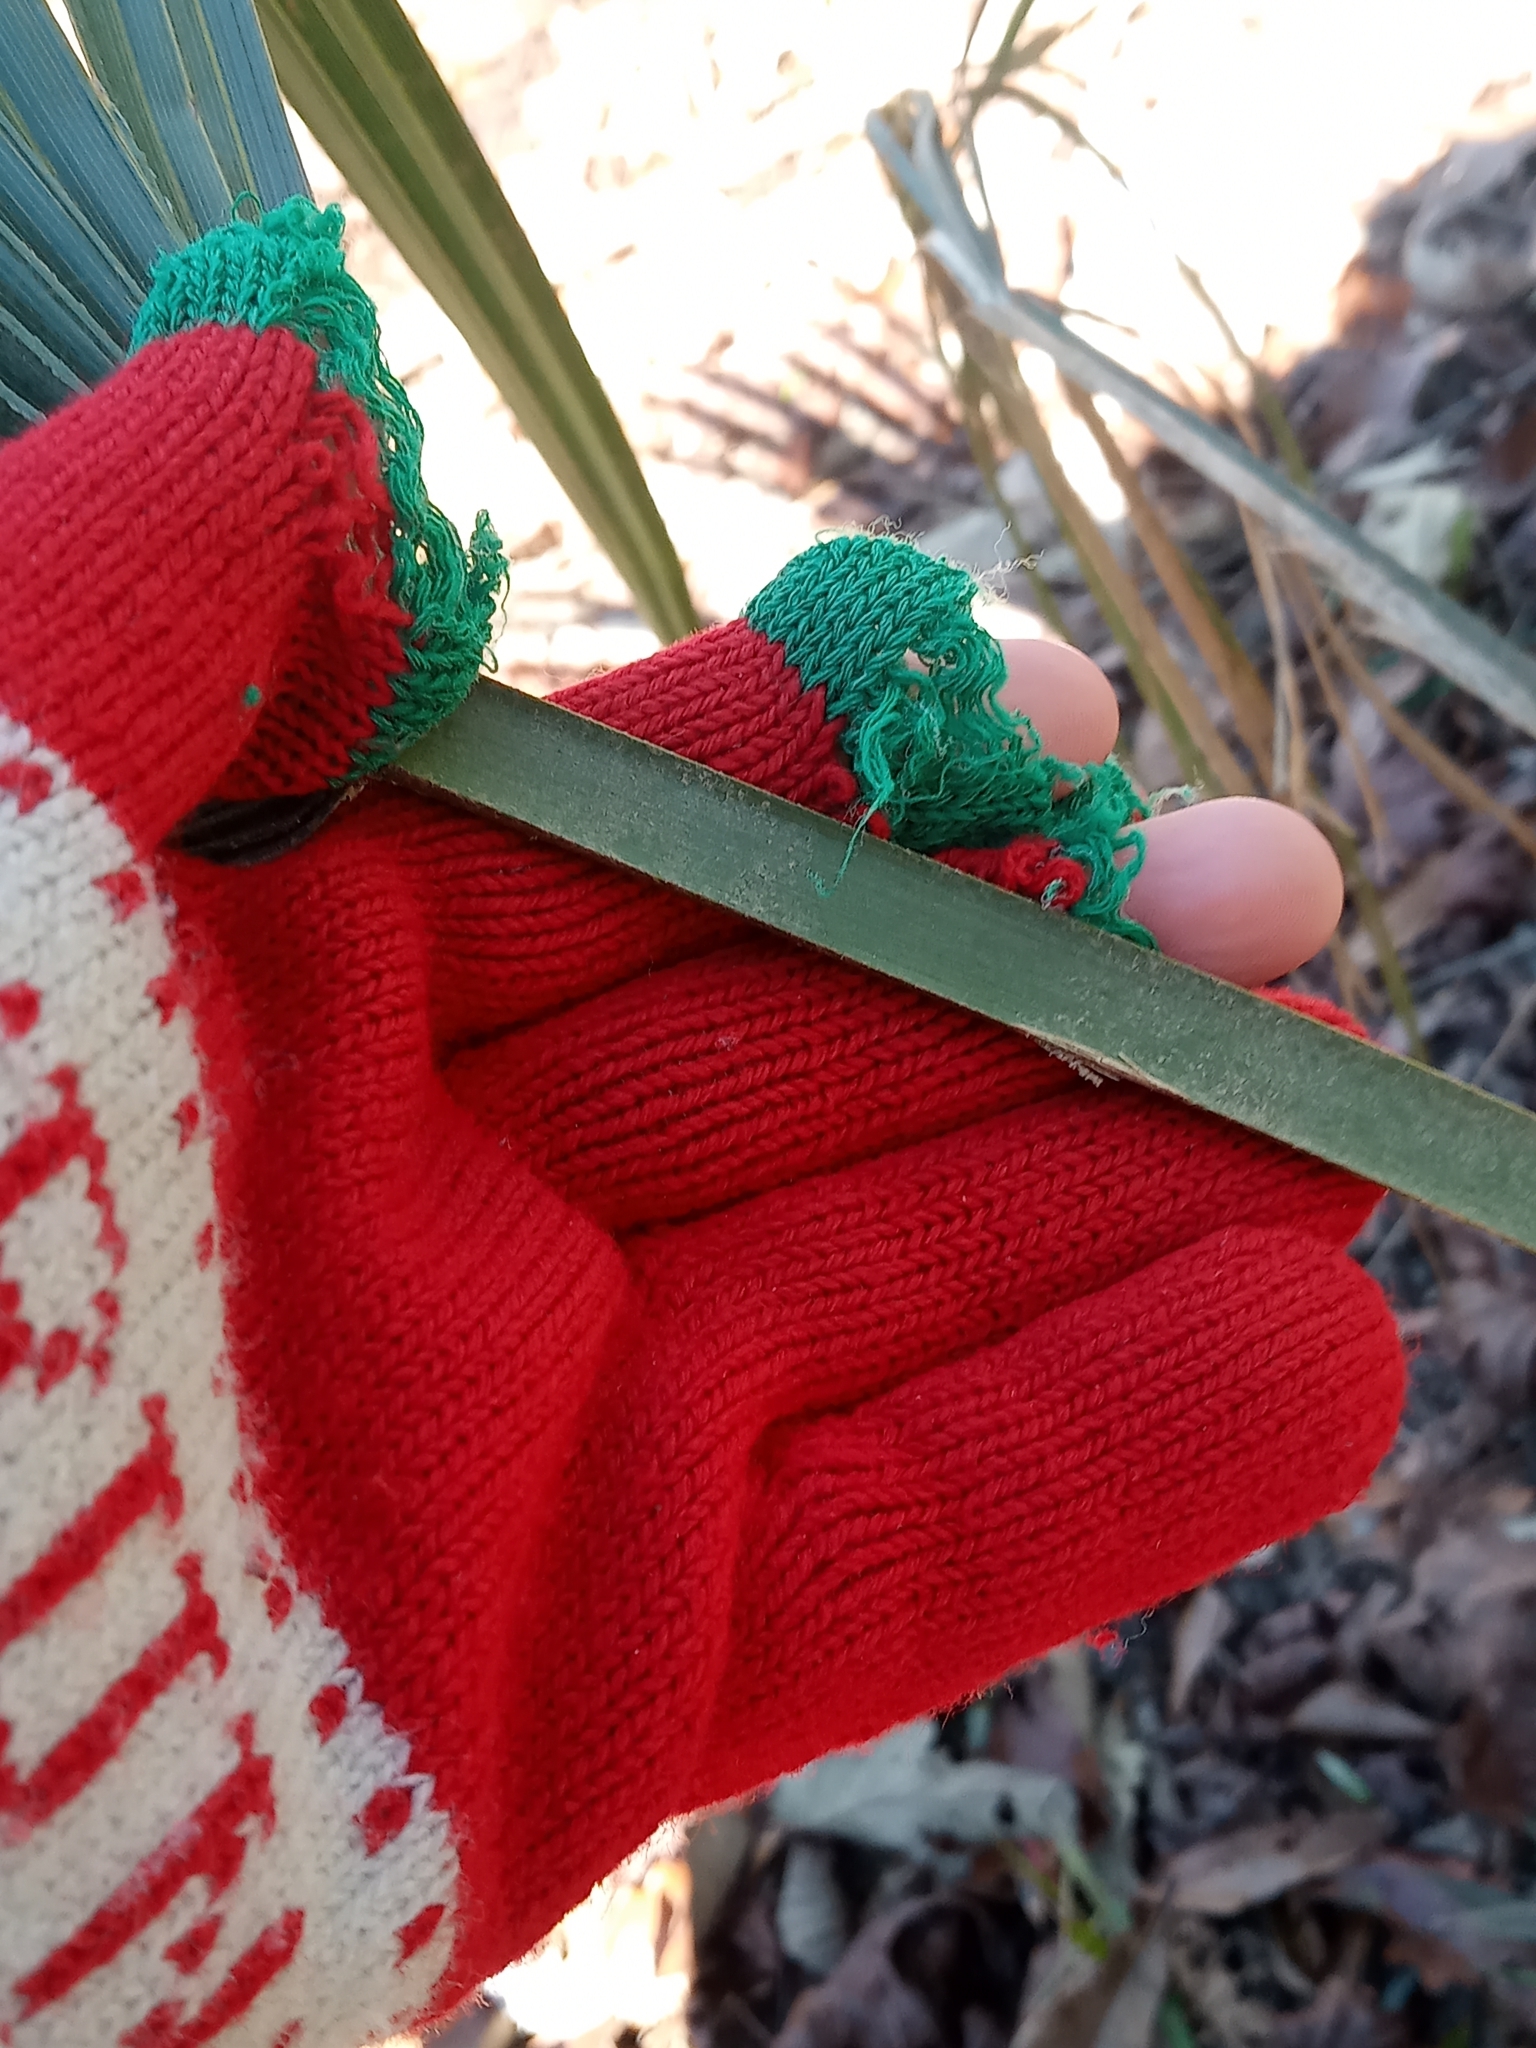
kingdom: Plantae
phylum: Tracheophyta
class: Liliopsida
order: Arecales
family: Arecaceae
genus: Sabal
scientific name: Sabal minor
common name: Dwarf palmetto
